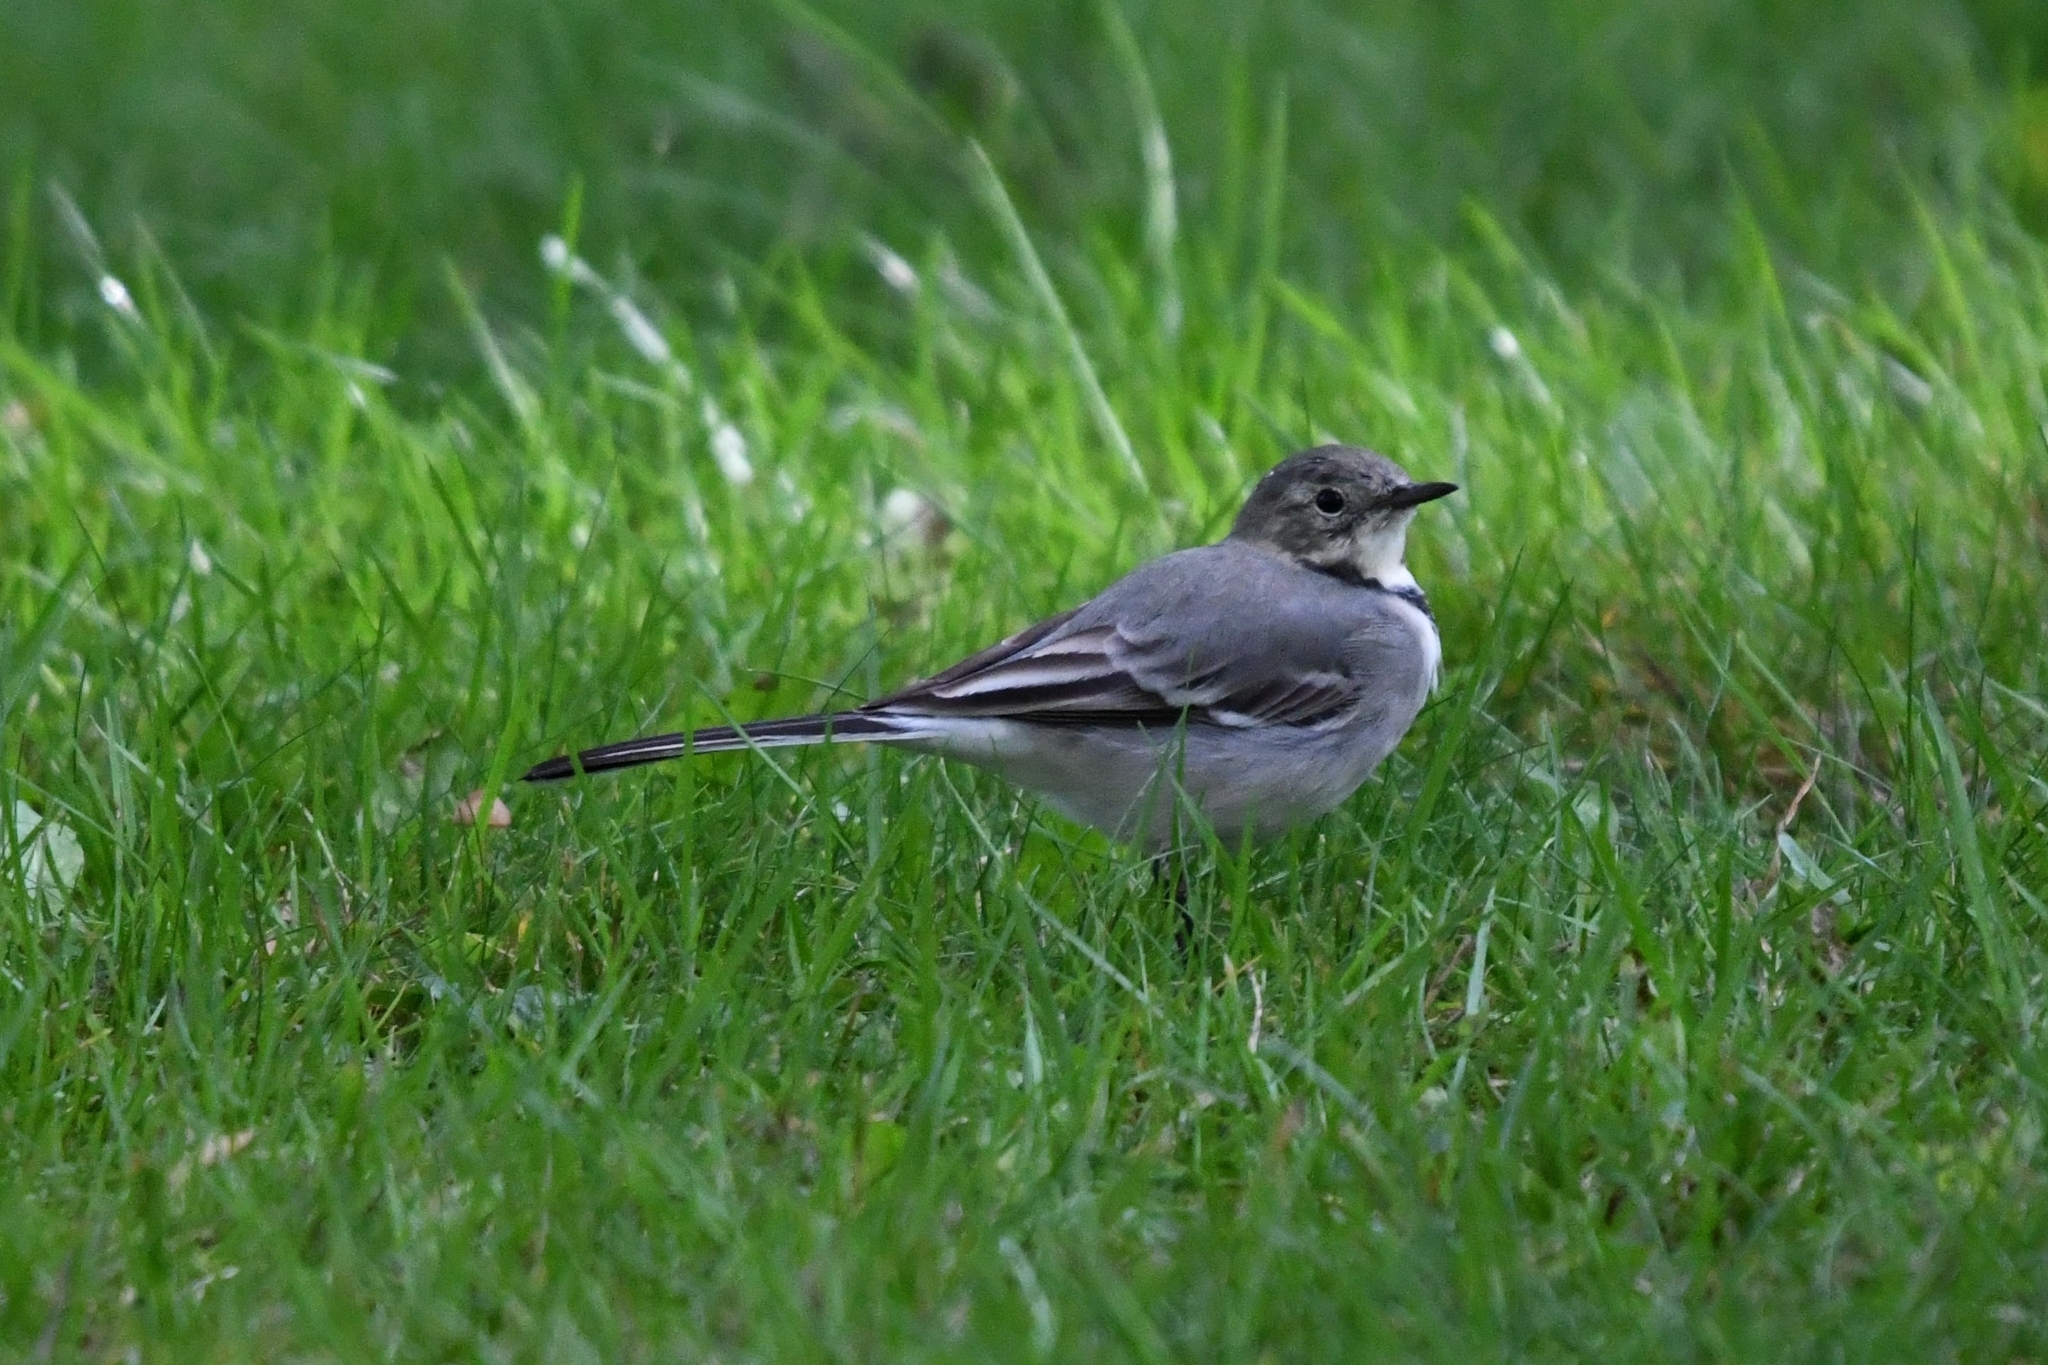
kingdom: Animalia
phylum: Chordata
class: Aves
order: Passeriformes
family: Motacillidae
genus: Motacilla
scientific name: Motacilla alba
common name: White wagtail
